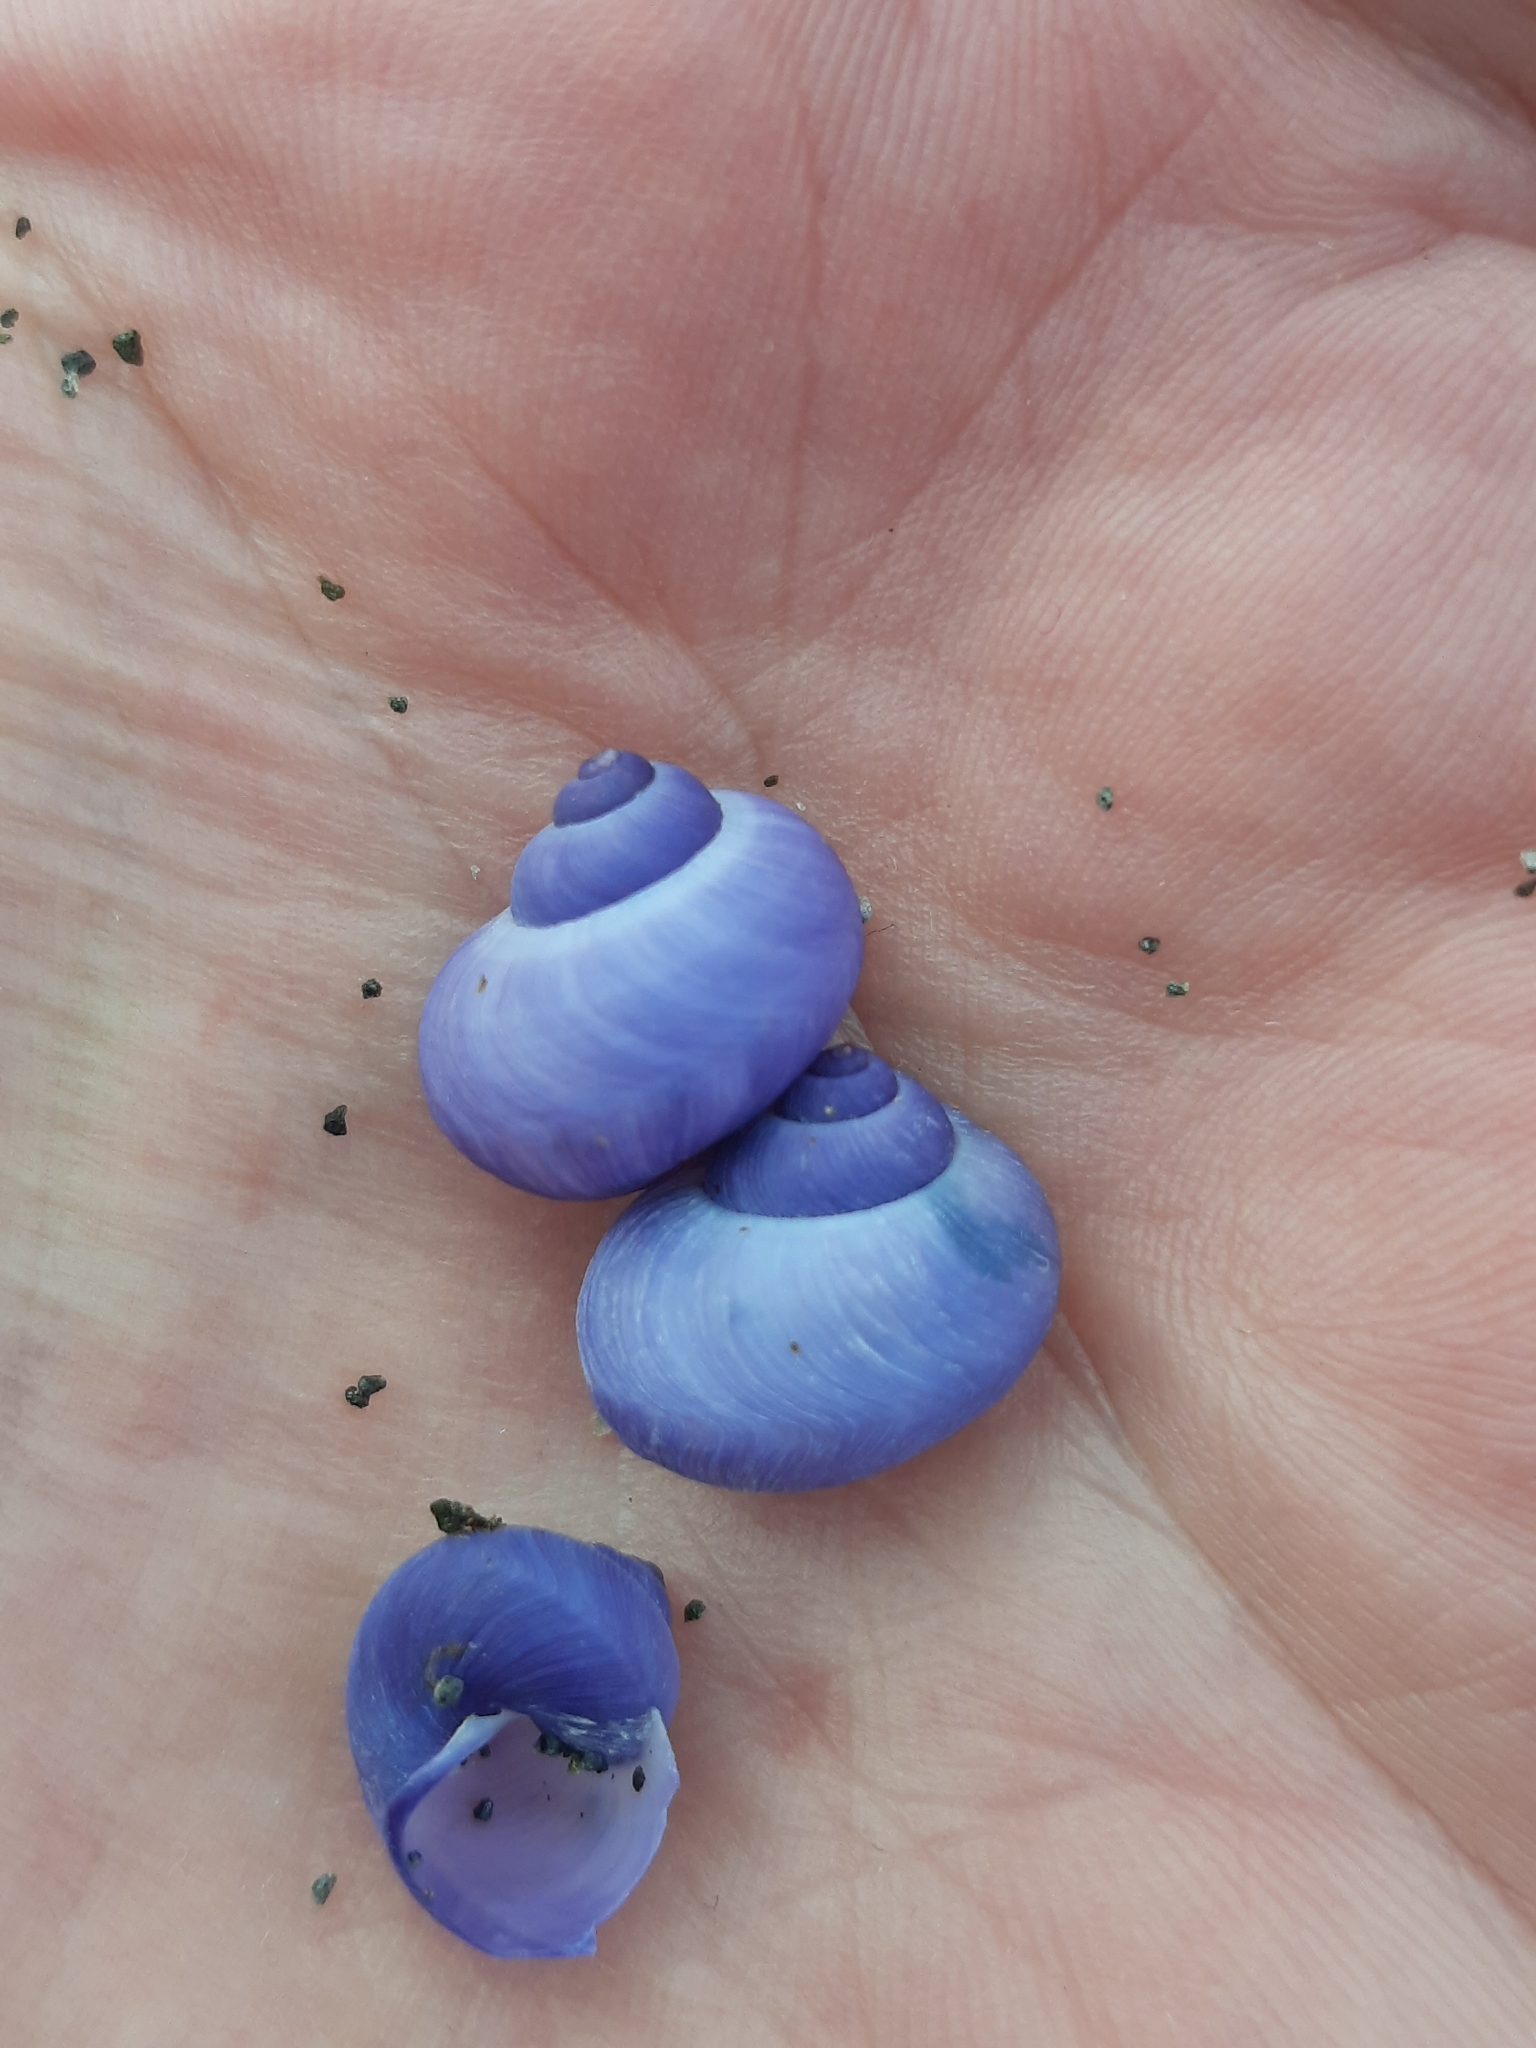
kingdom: Animalia
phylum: Mollusca
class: Gastropoda
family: Epitoniidae
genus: Janthina
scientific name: Janthina exigua
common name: Dwarf janthina
